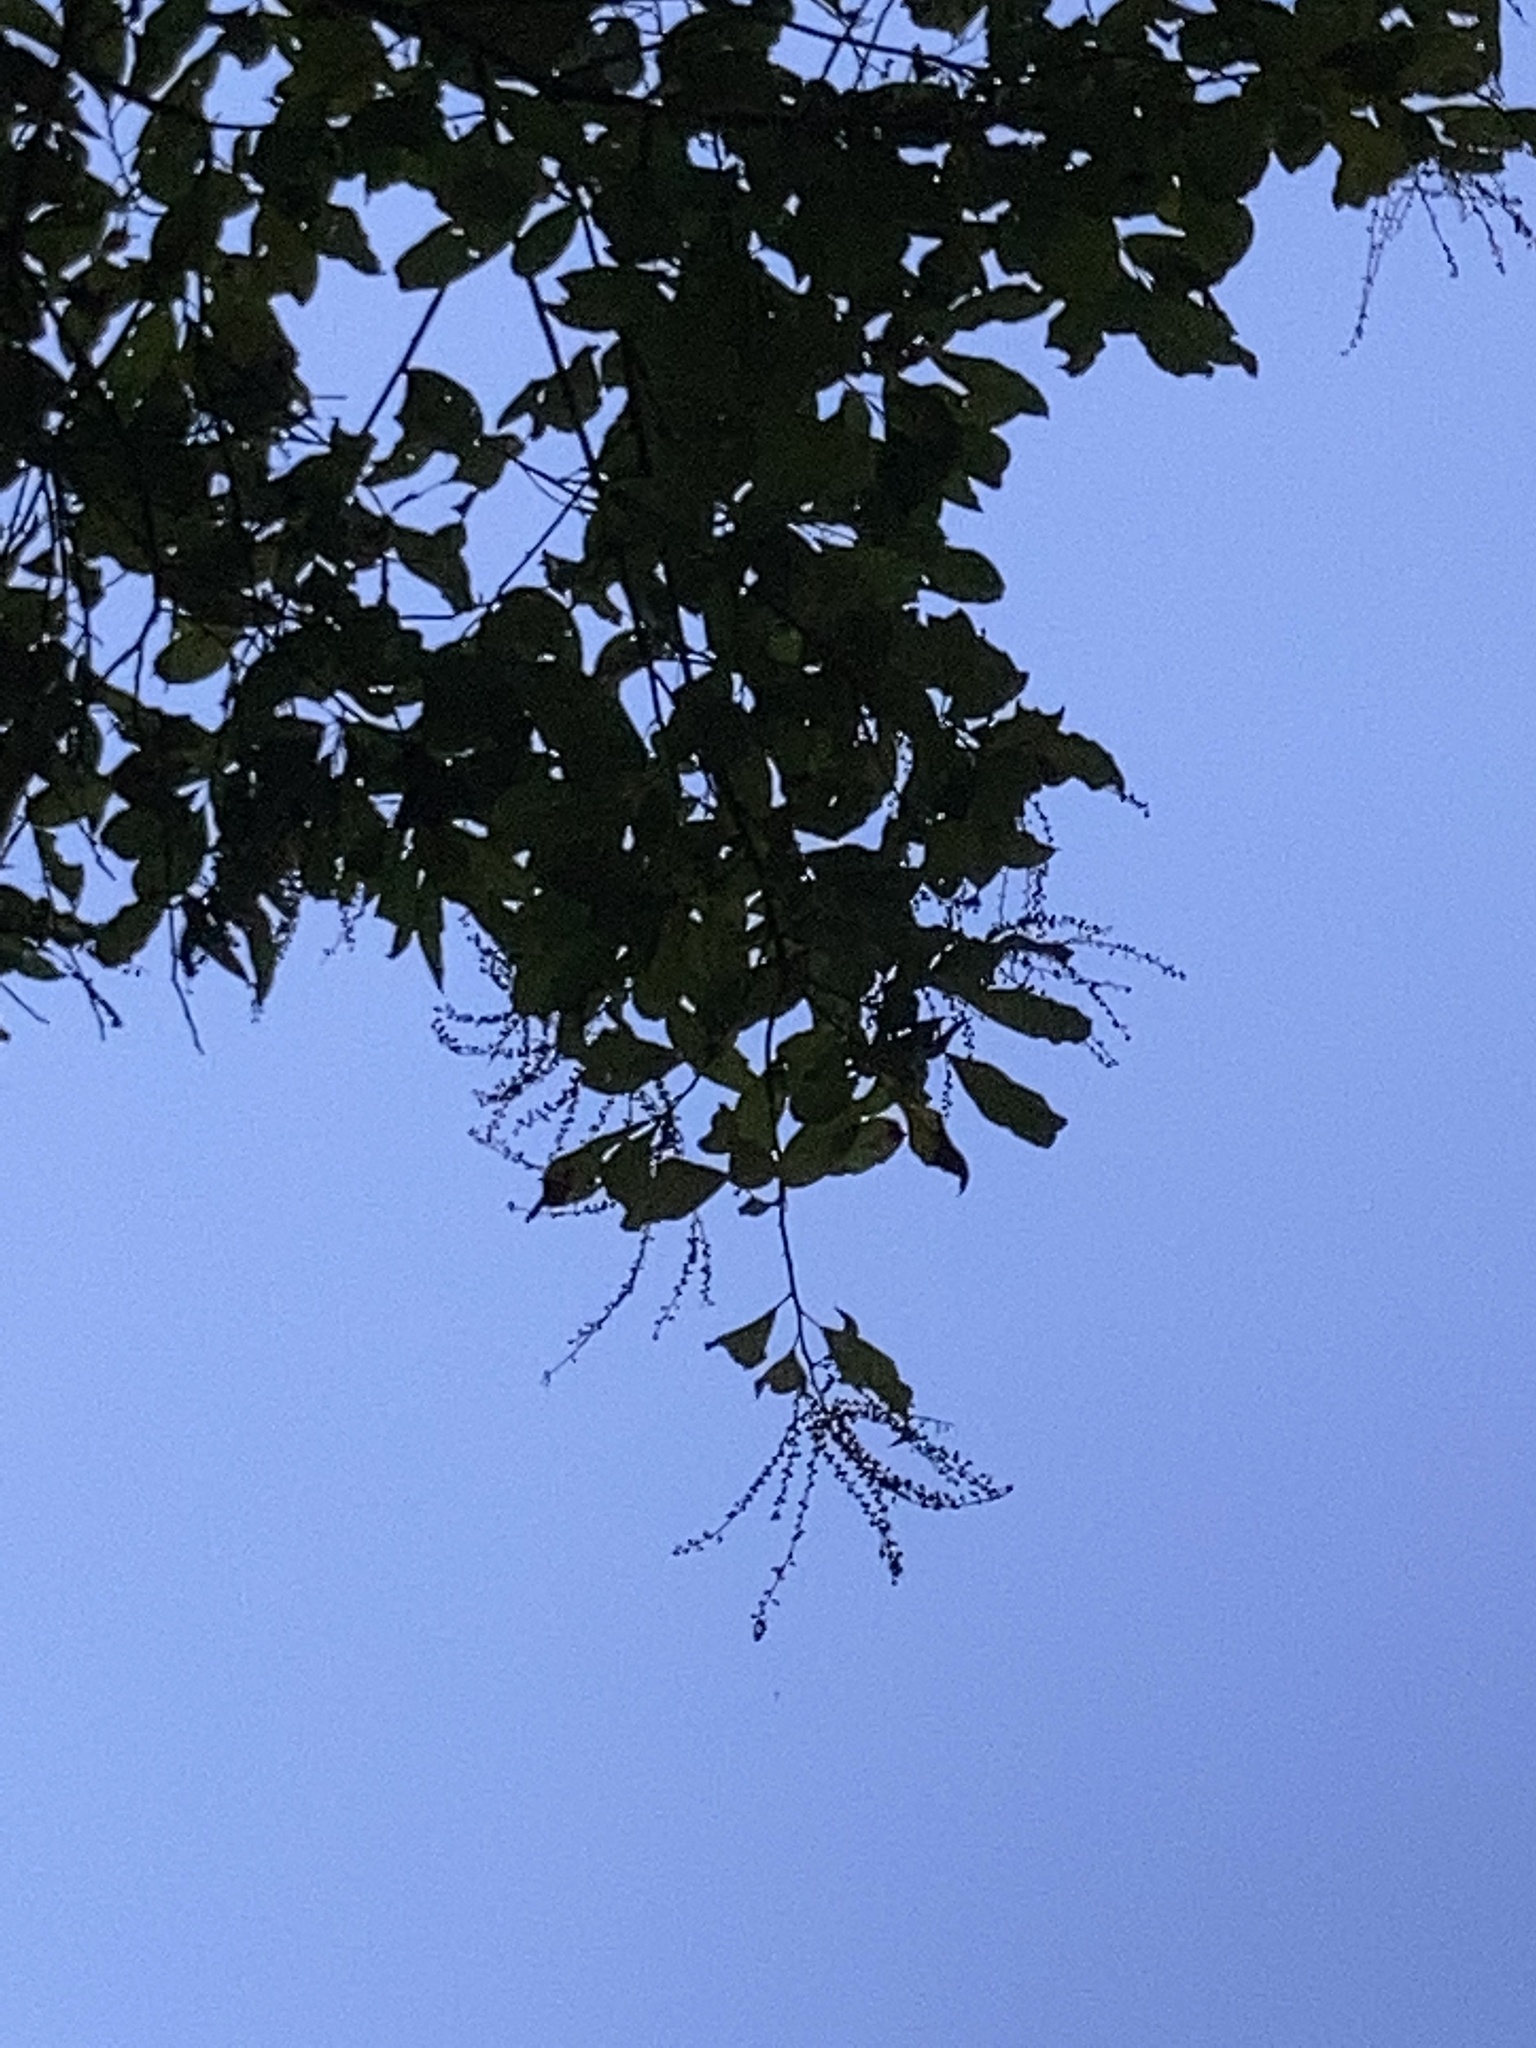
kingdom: Plantae
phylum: Tracheophyta
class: Magnoliopsida
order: Ericales
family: Ericaceae
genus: Oxydendrum
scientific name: Oxydendrum arboreum
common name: Sourwood
